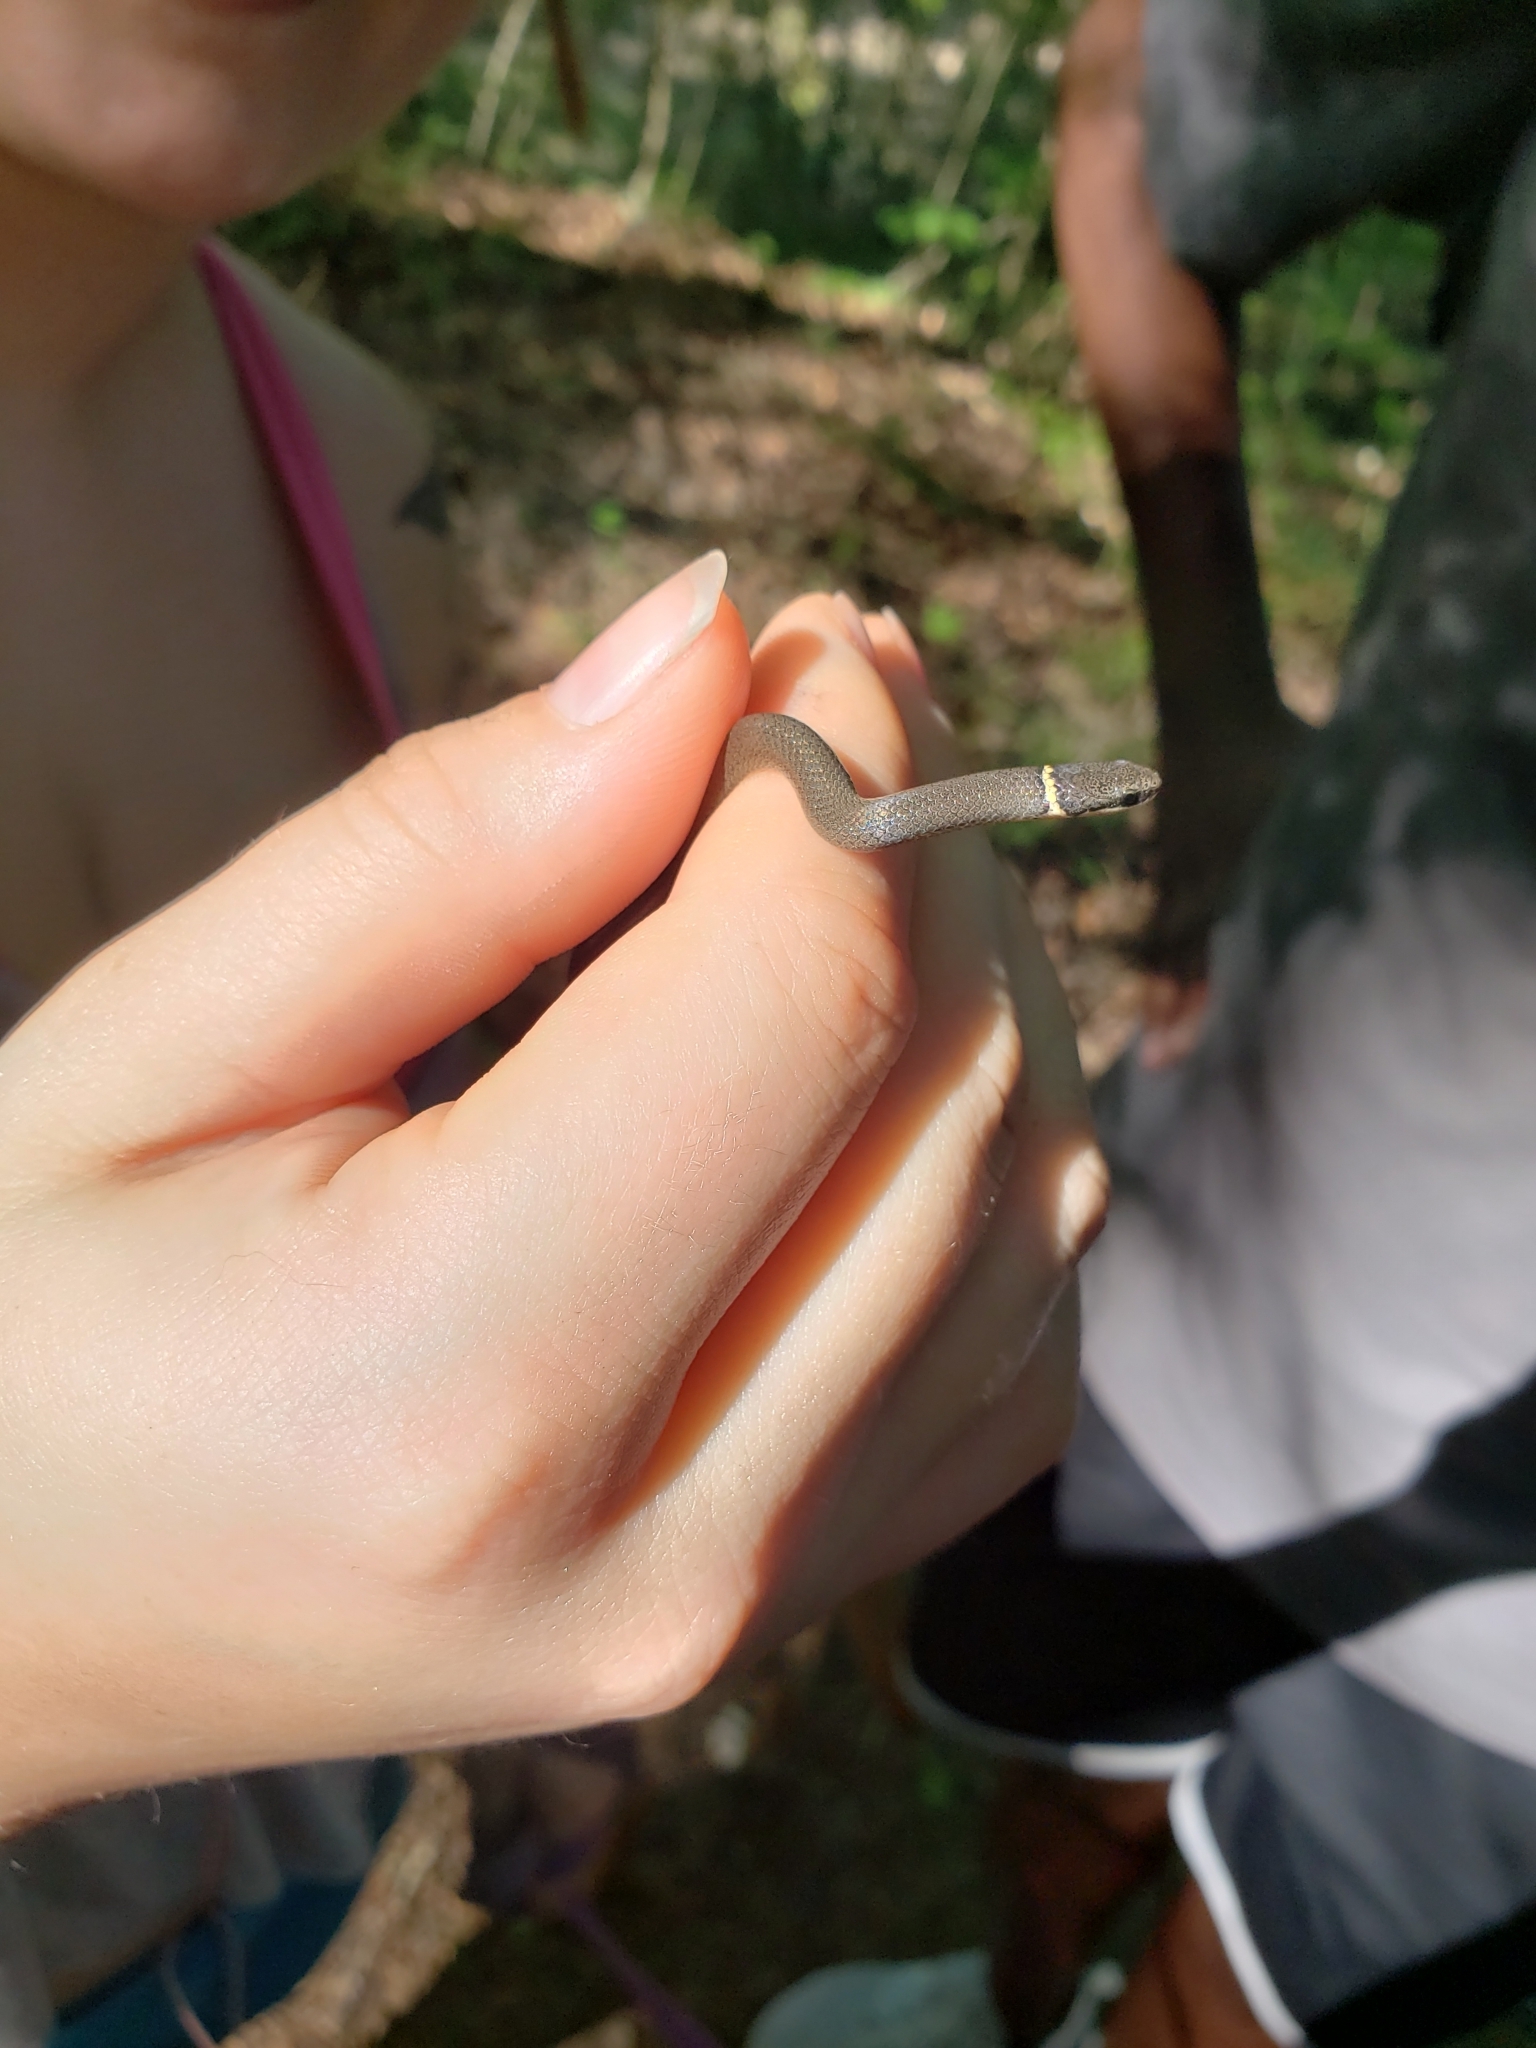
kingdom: Animalia
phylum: Chordata
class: Squamata
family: Colubridae
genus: Diadophis
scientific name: Diadophis punctatus
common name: Ringneck snake
